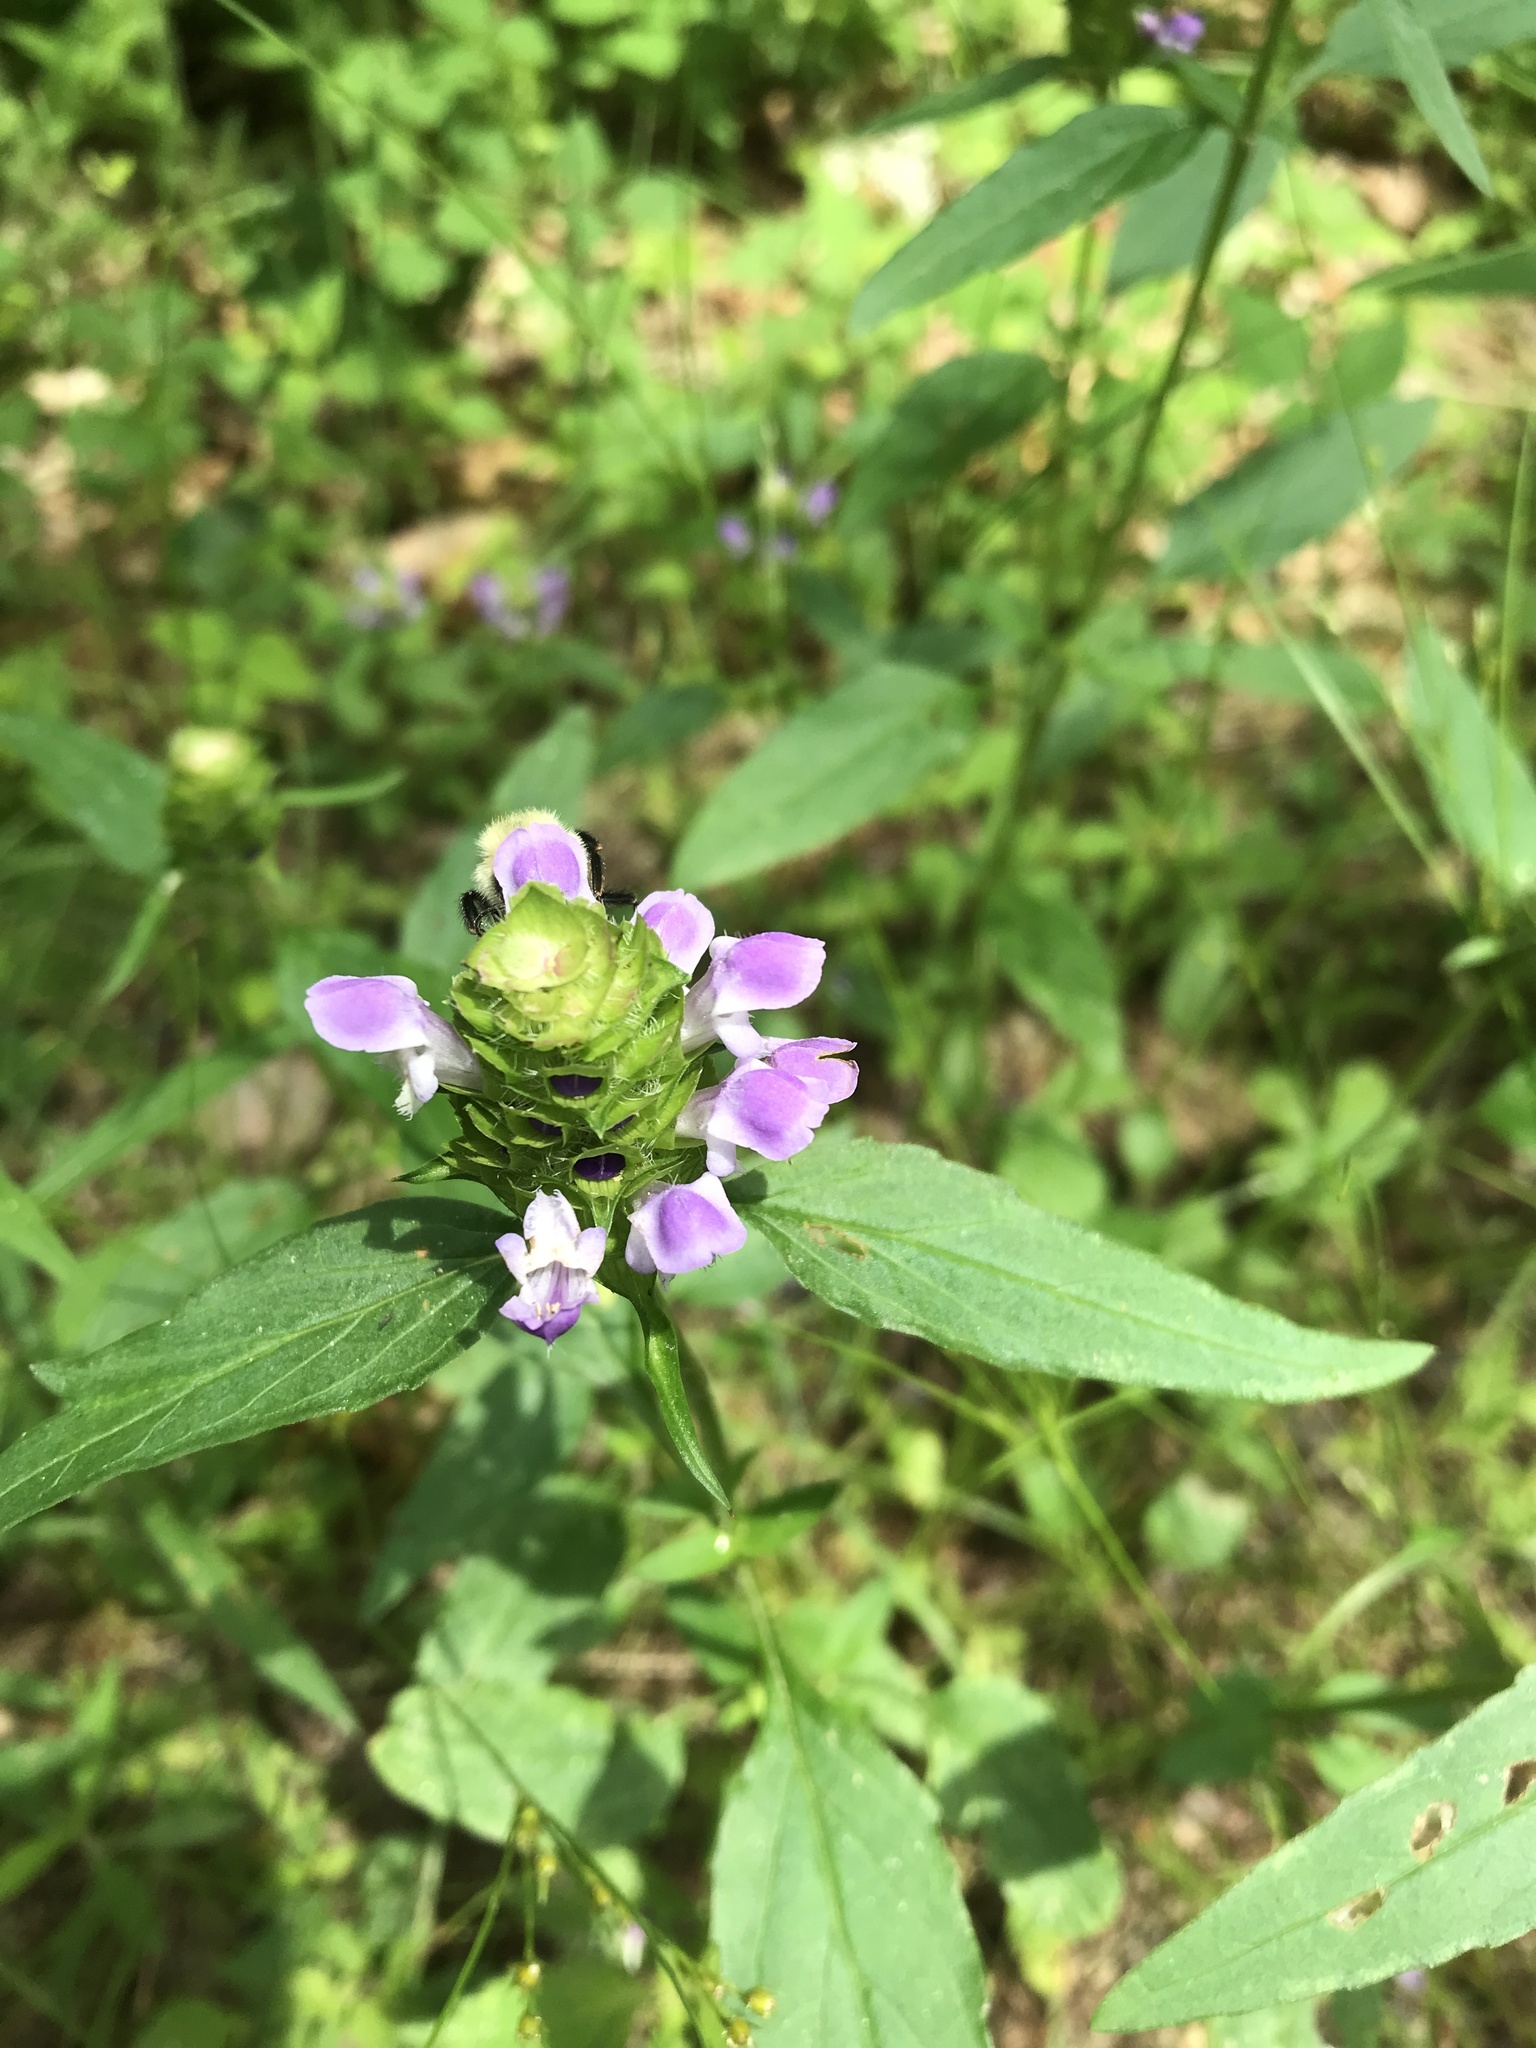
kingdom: Plantae
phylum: Tracheophyta
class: Magnoliopsida
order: Lamiales
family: Lamiaceae
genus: Prunella
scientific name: Prunella vulgaris
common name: Heal-all
